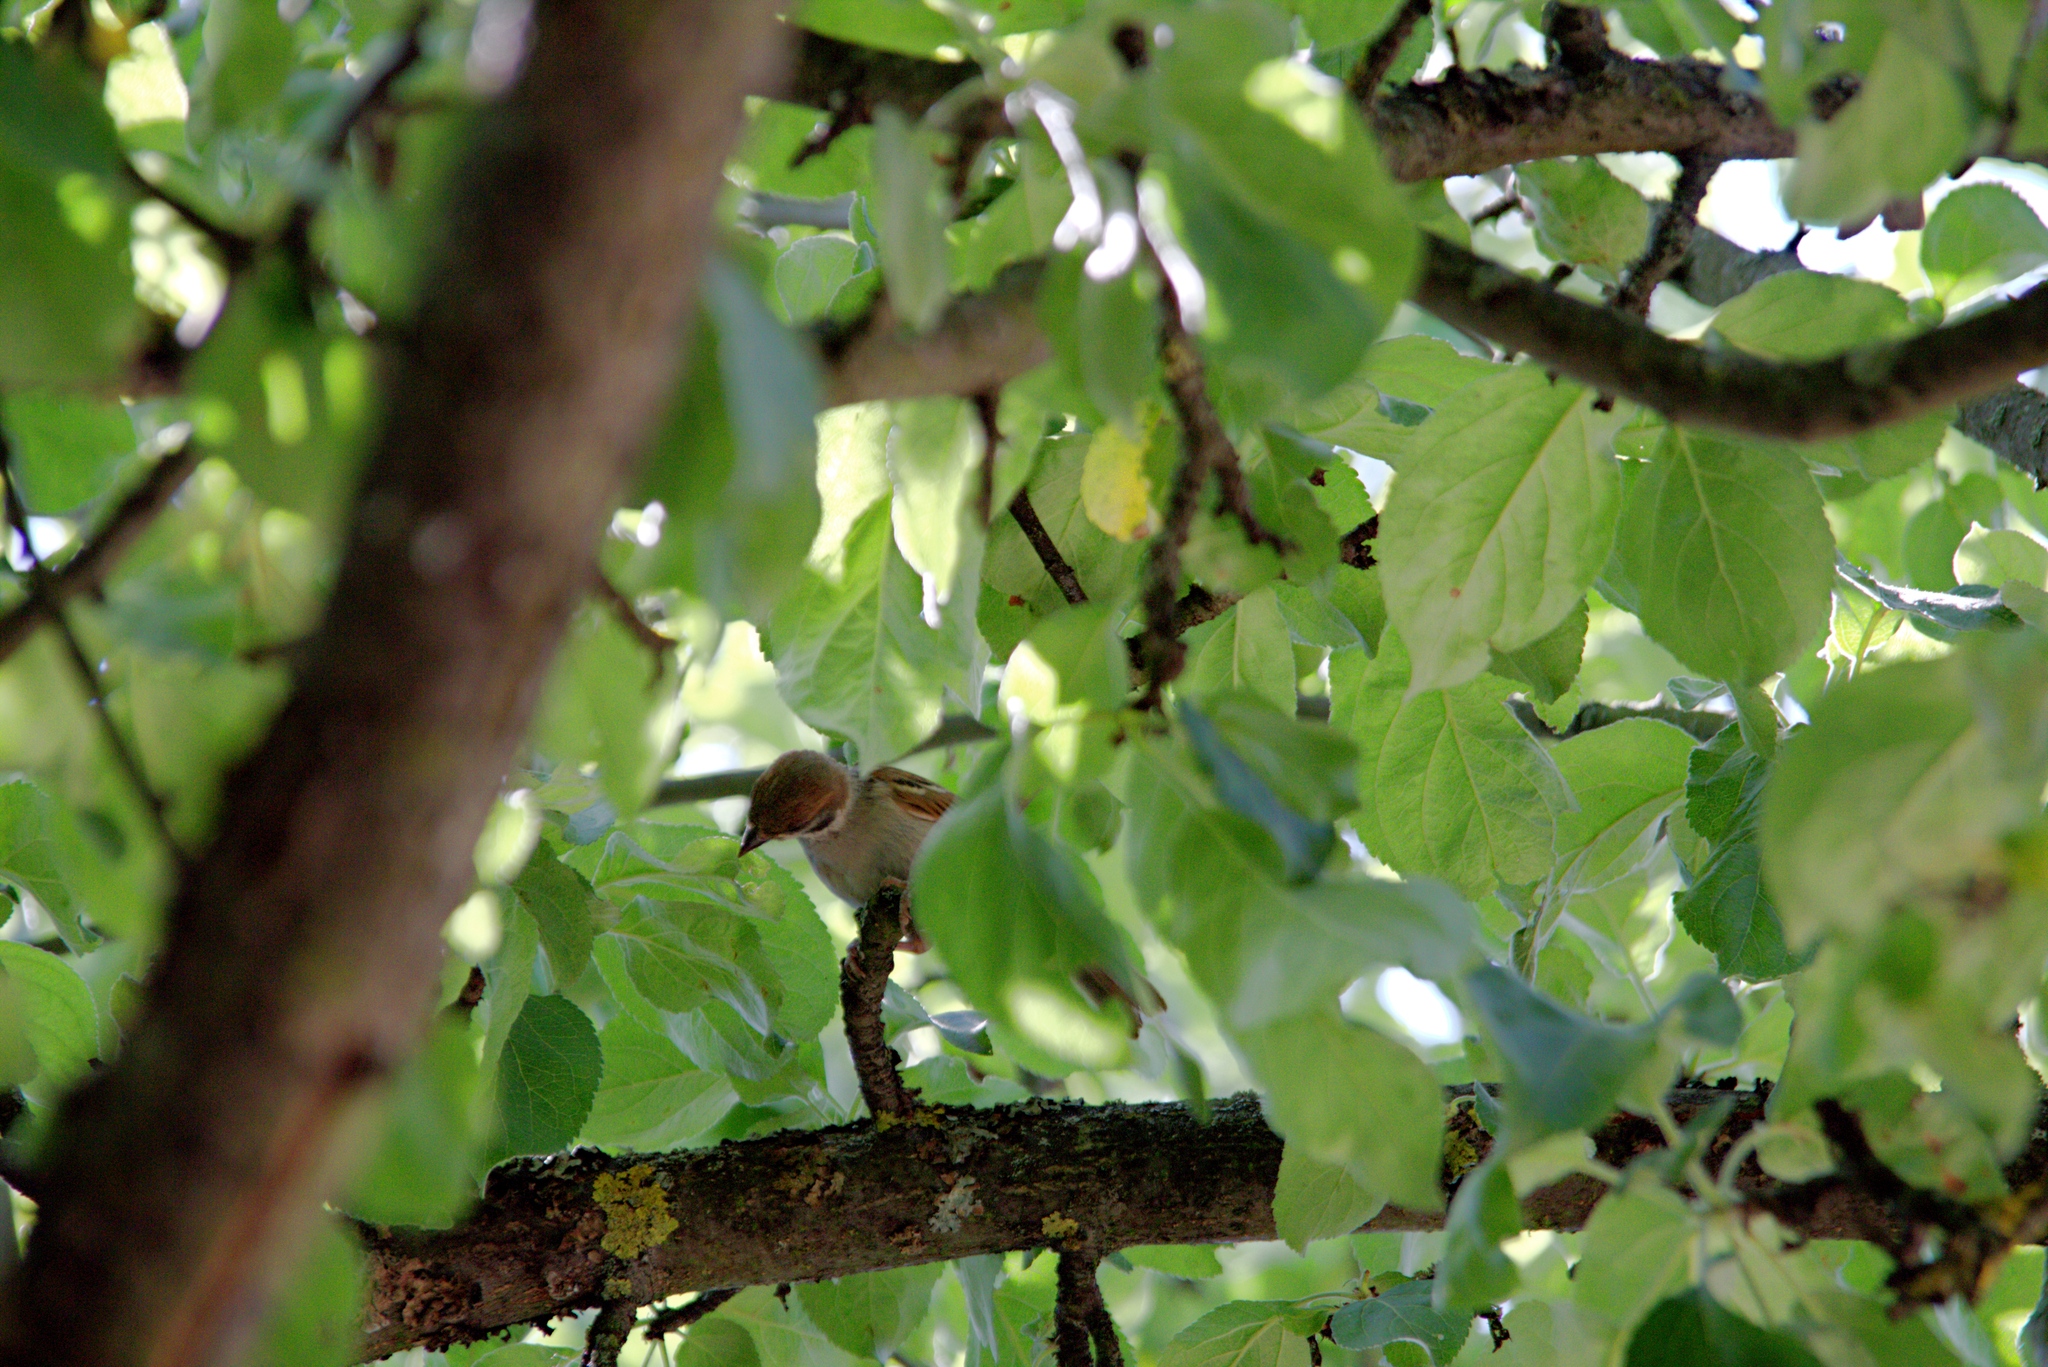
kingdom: Animalia
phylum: Chordata
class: Aves
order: Passeriformes
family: Passeridae
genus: Passer
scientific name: Passer montanus
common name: Eurasian tree sparrow
